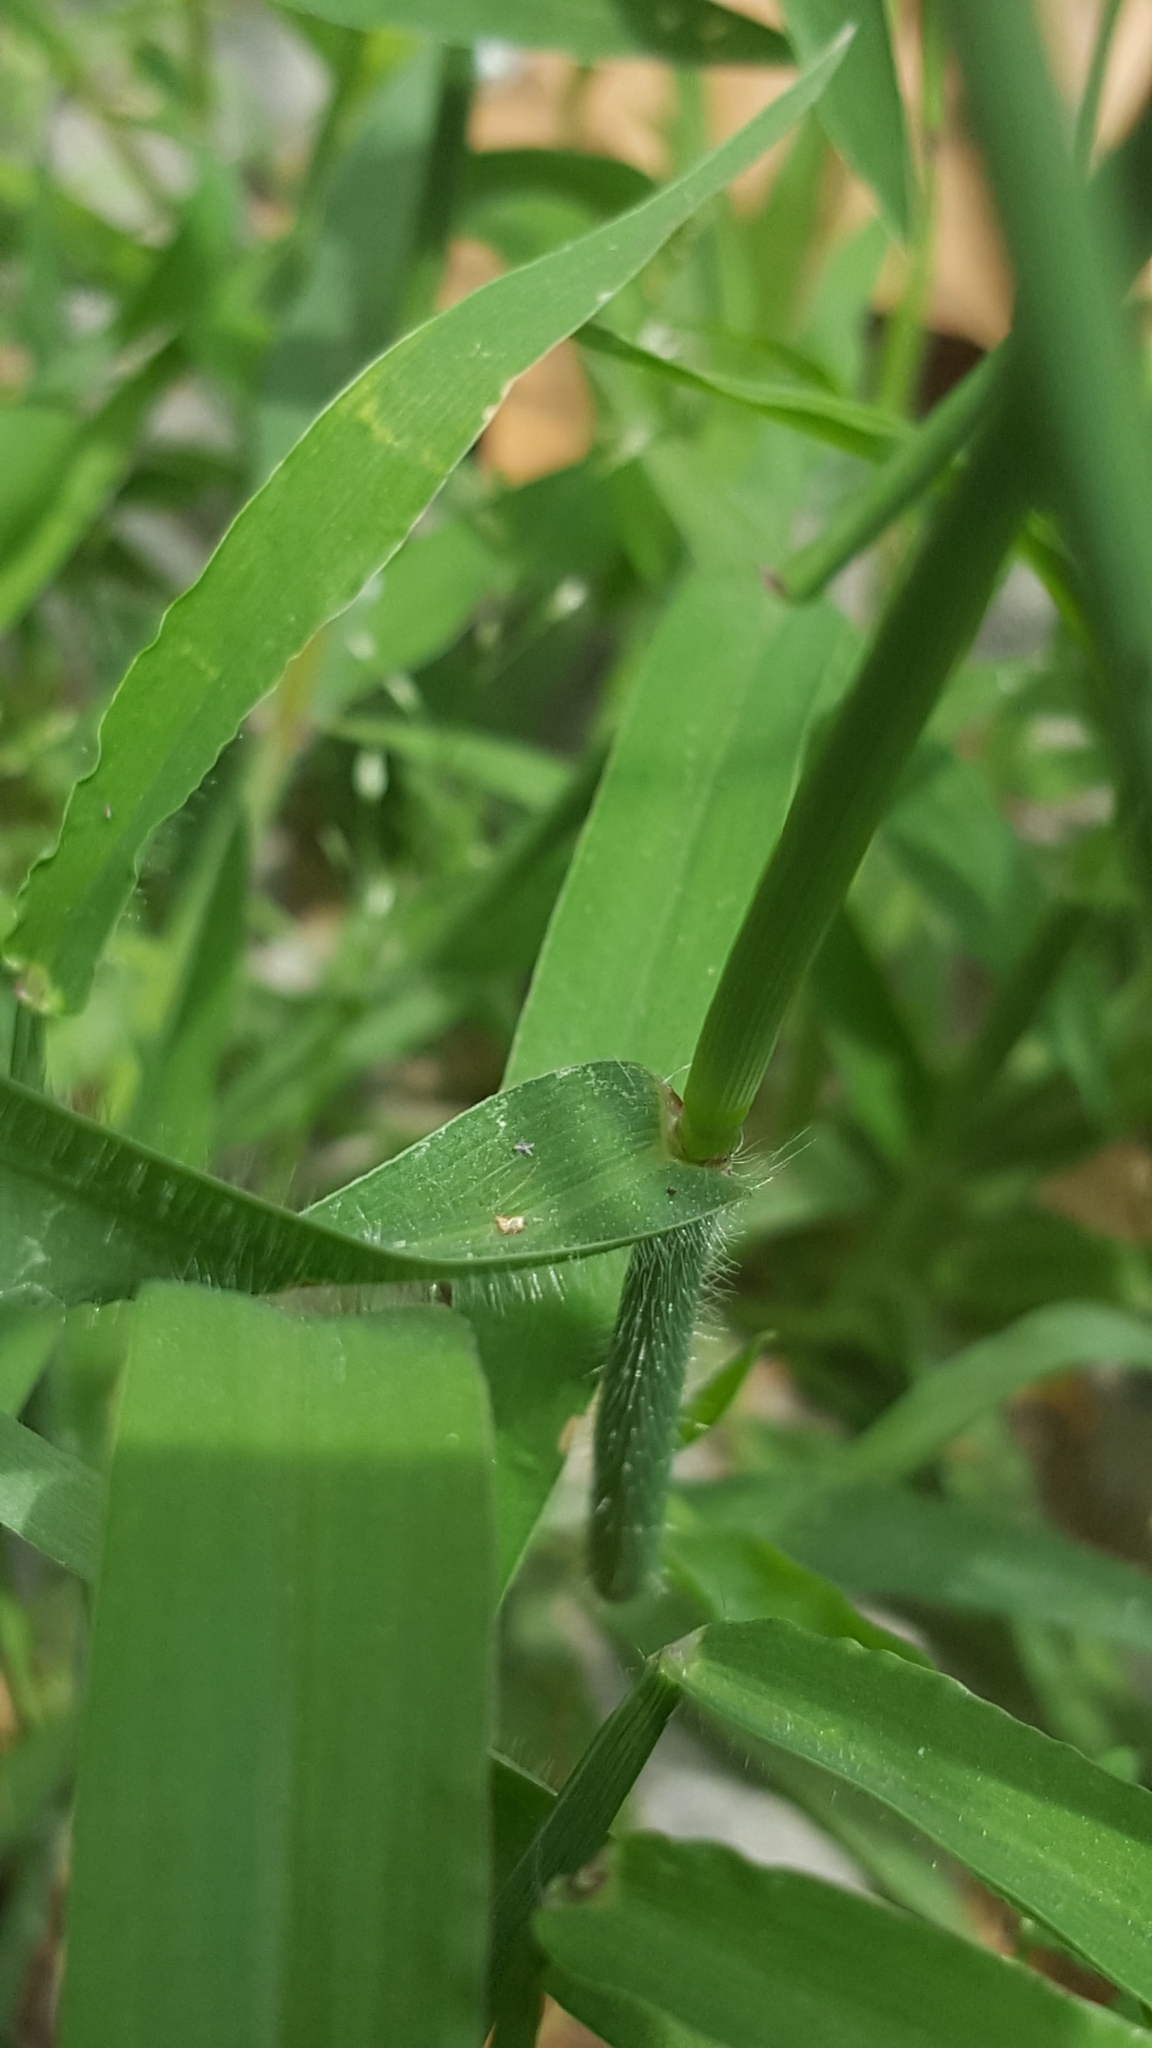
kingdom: Plantae
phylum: Tracheophyta
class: Liliopsida
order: Poales
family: Poaceae
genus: Digitaria
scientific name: Digitaria sanguinalis
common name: Hairy crabgrass
